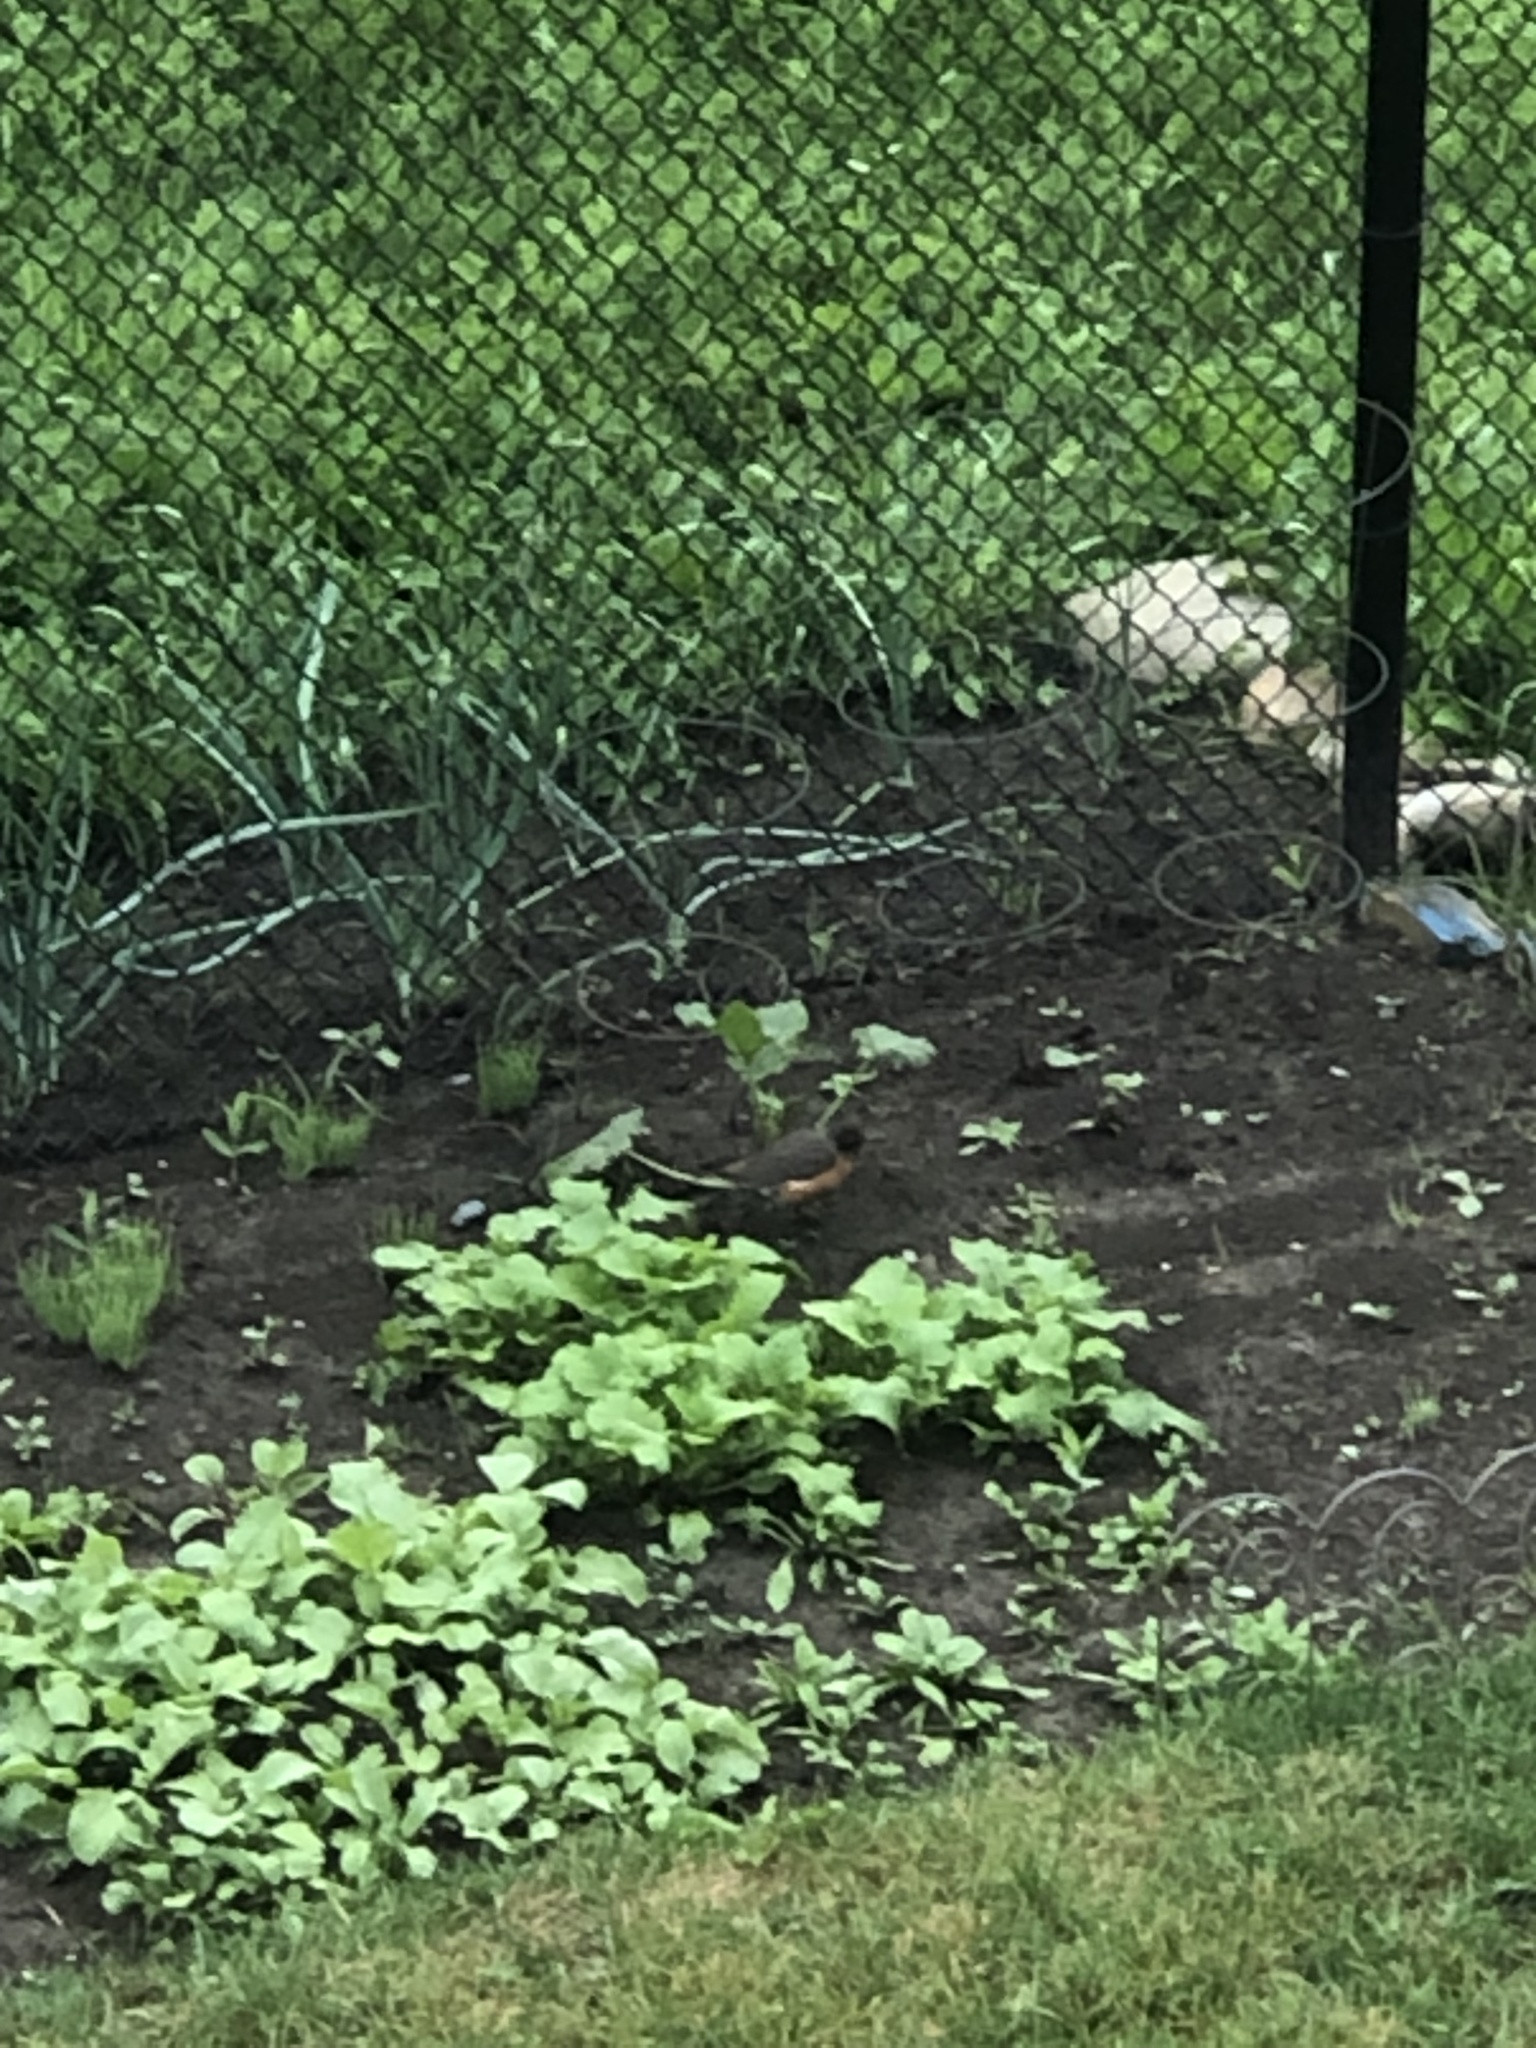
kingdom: Animalia
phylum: Chordata
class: Aves
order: Passeriformes
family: Turdidae
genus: Turdus
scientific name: Turdus migratorius
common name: American robin
